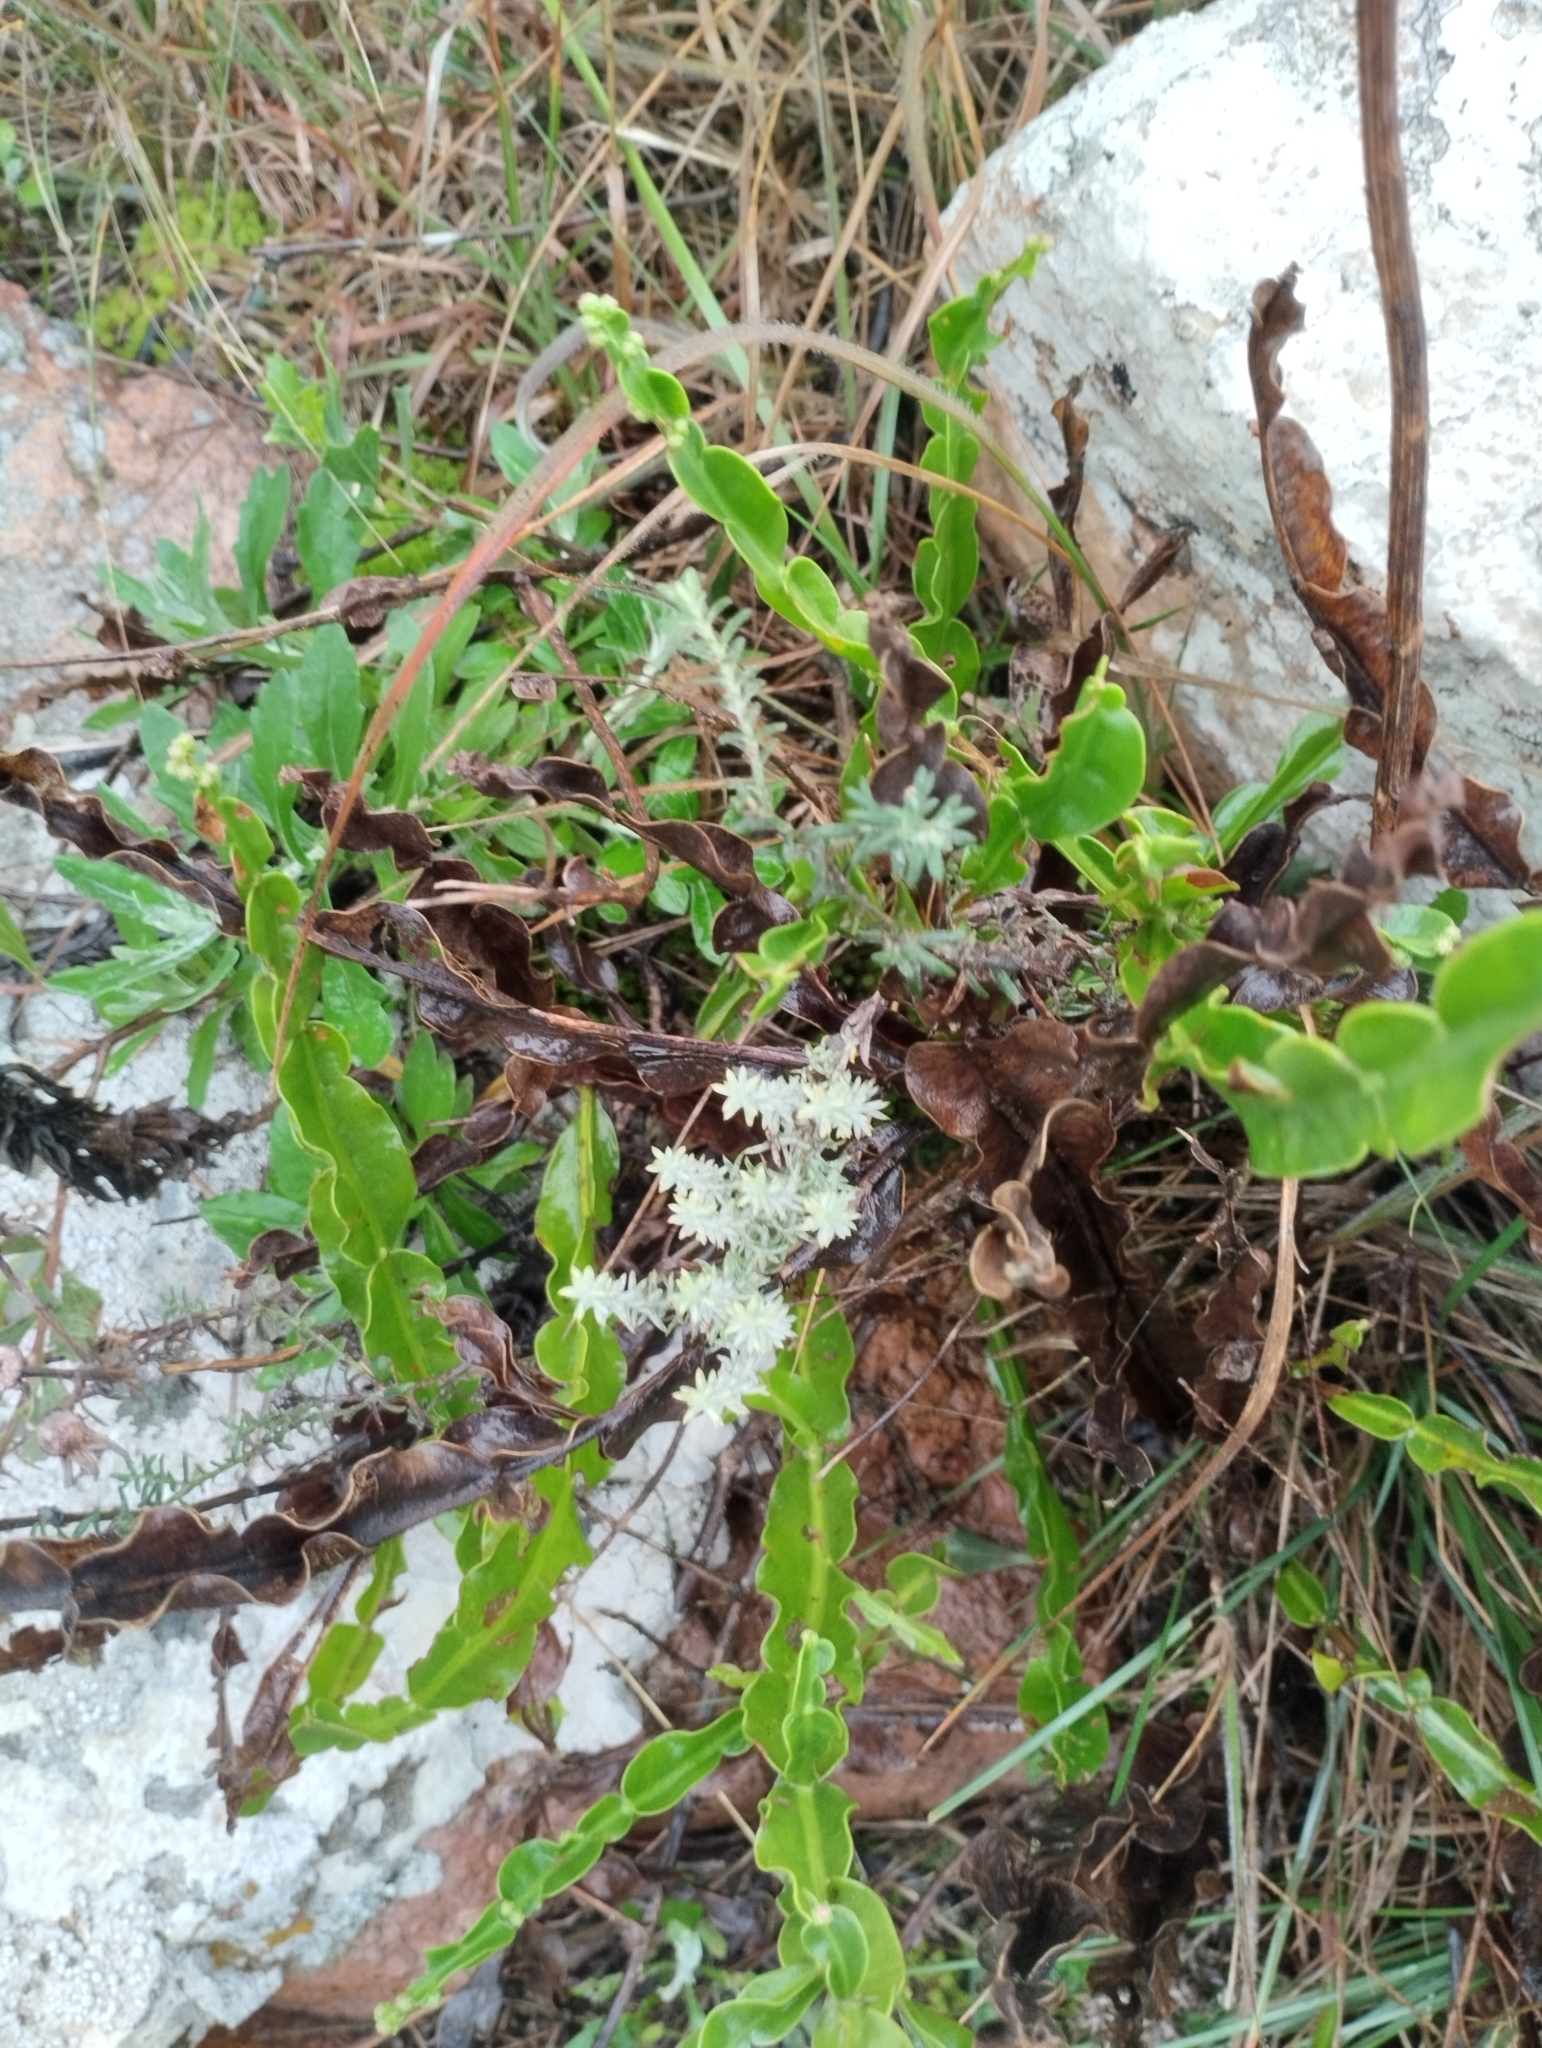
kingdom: Plantae
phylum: Tracheophyta
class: Magnoliopsida
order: Asterales
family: Asteraceae
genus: Lucilia
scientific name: Lucilia acutifolia
